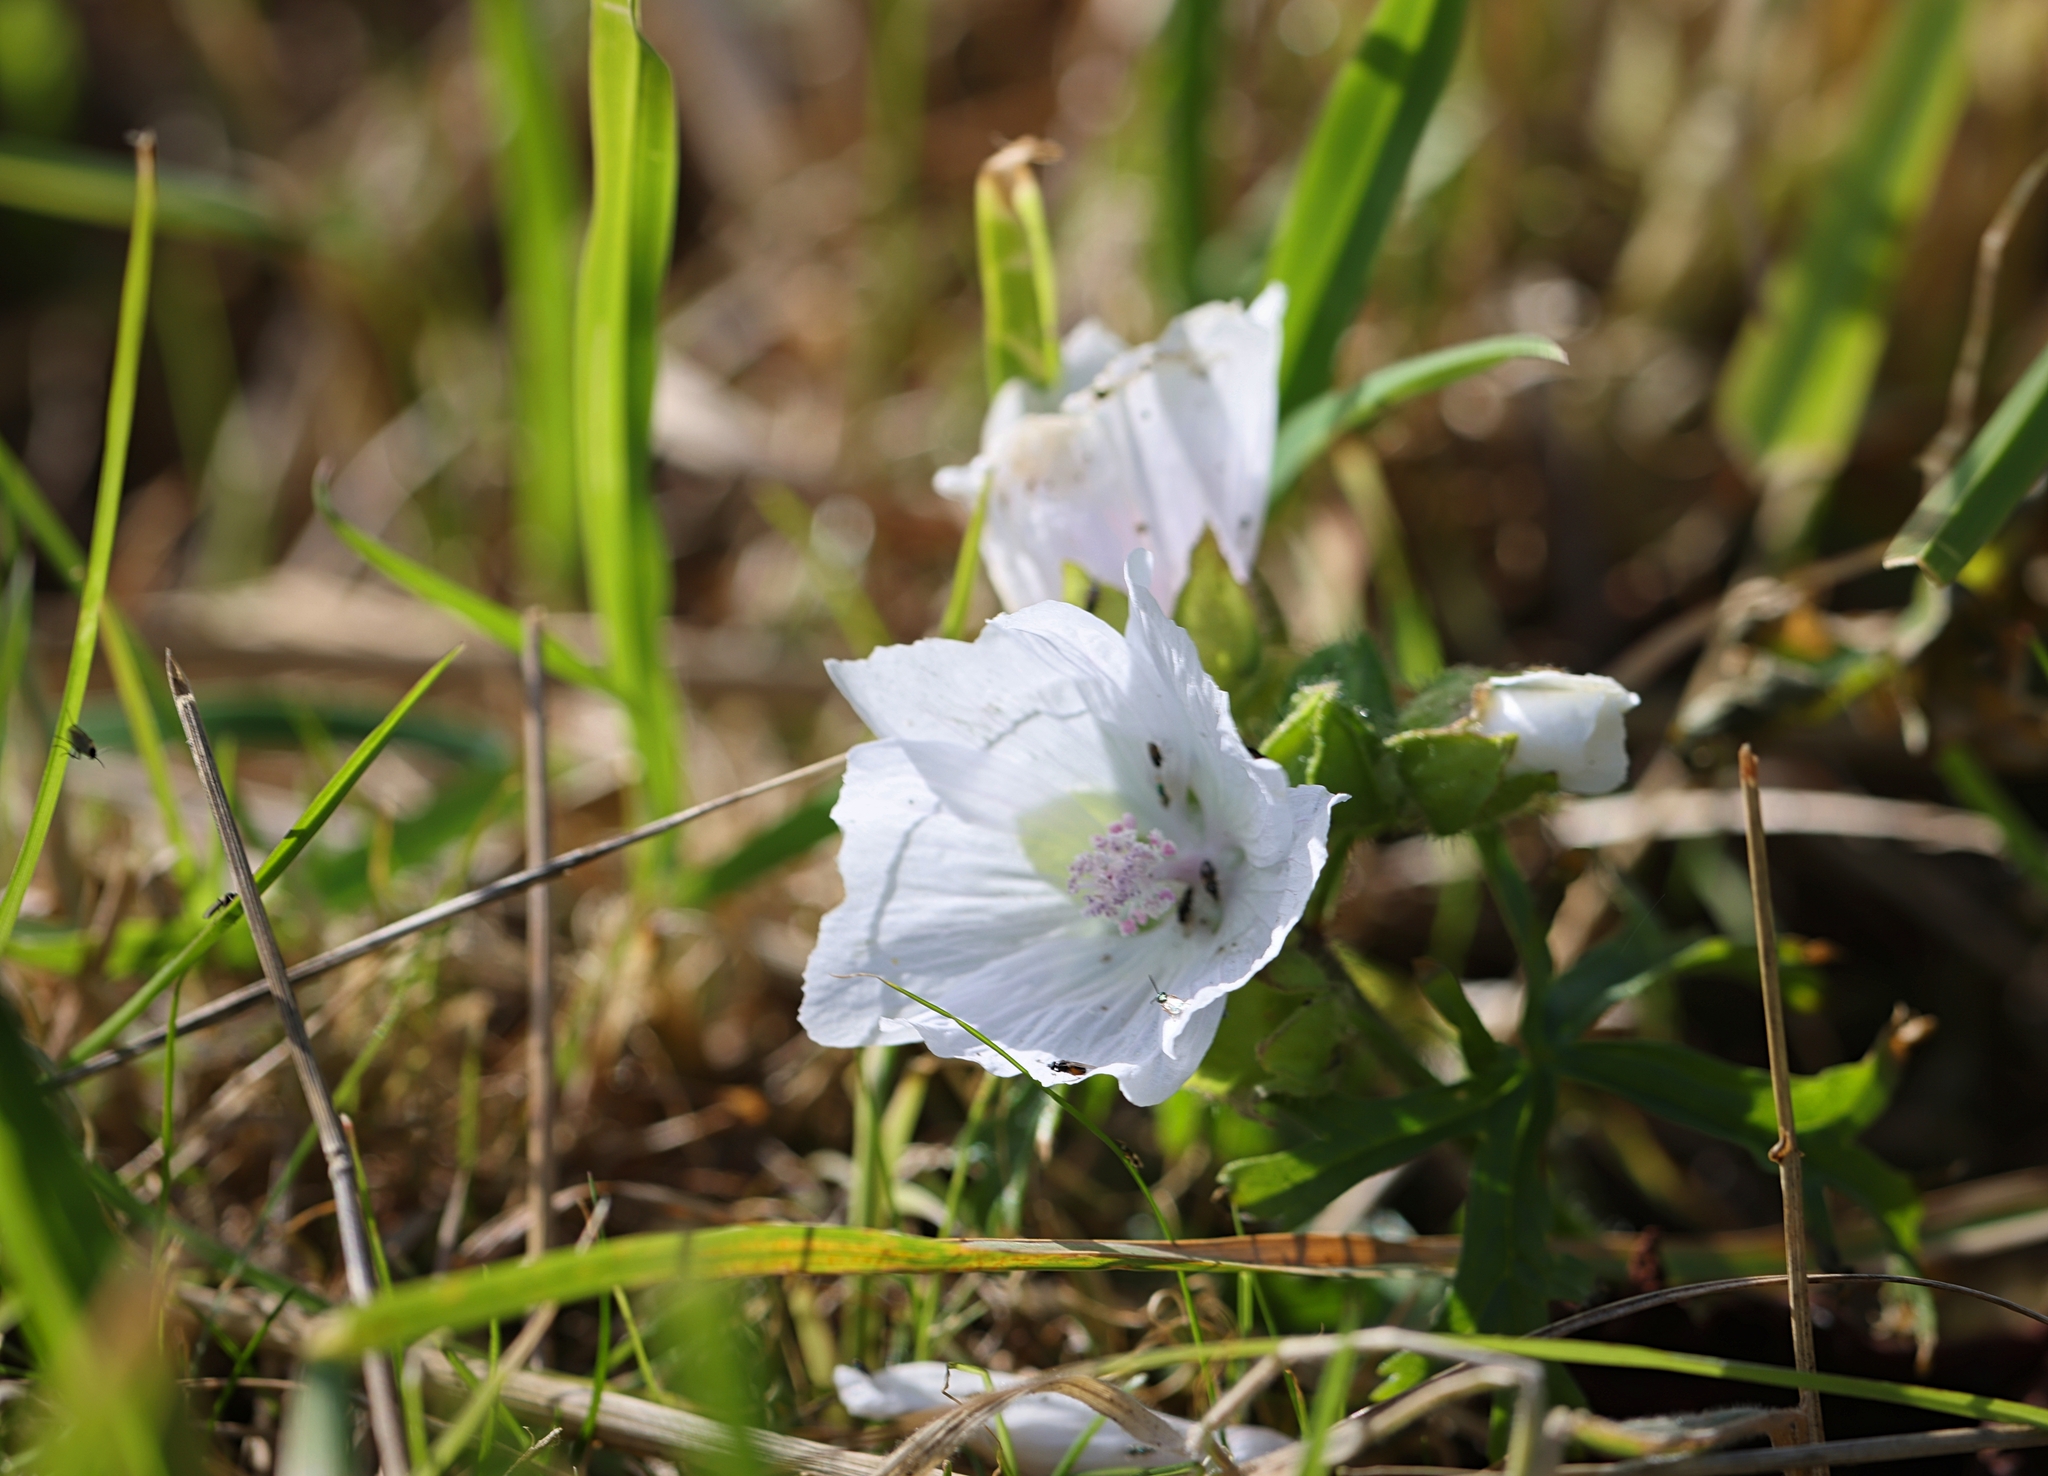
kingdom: Plantae
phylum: Tracheophyta
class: Magnoliopsida
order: Malvales
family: Malvaceae
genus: Malva
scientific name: Malva moschata
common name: Musk mallow
